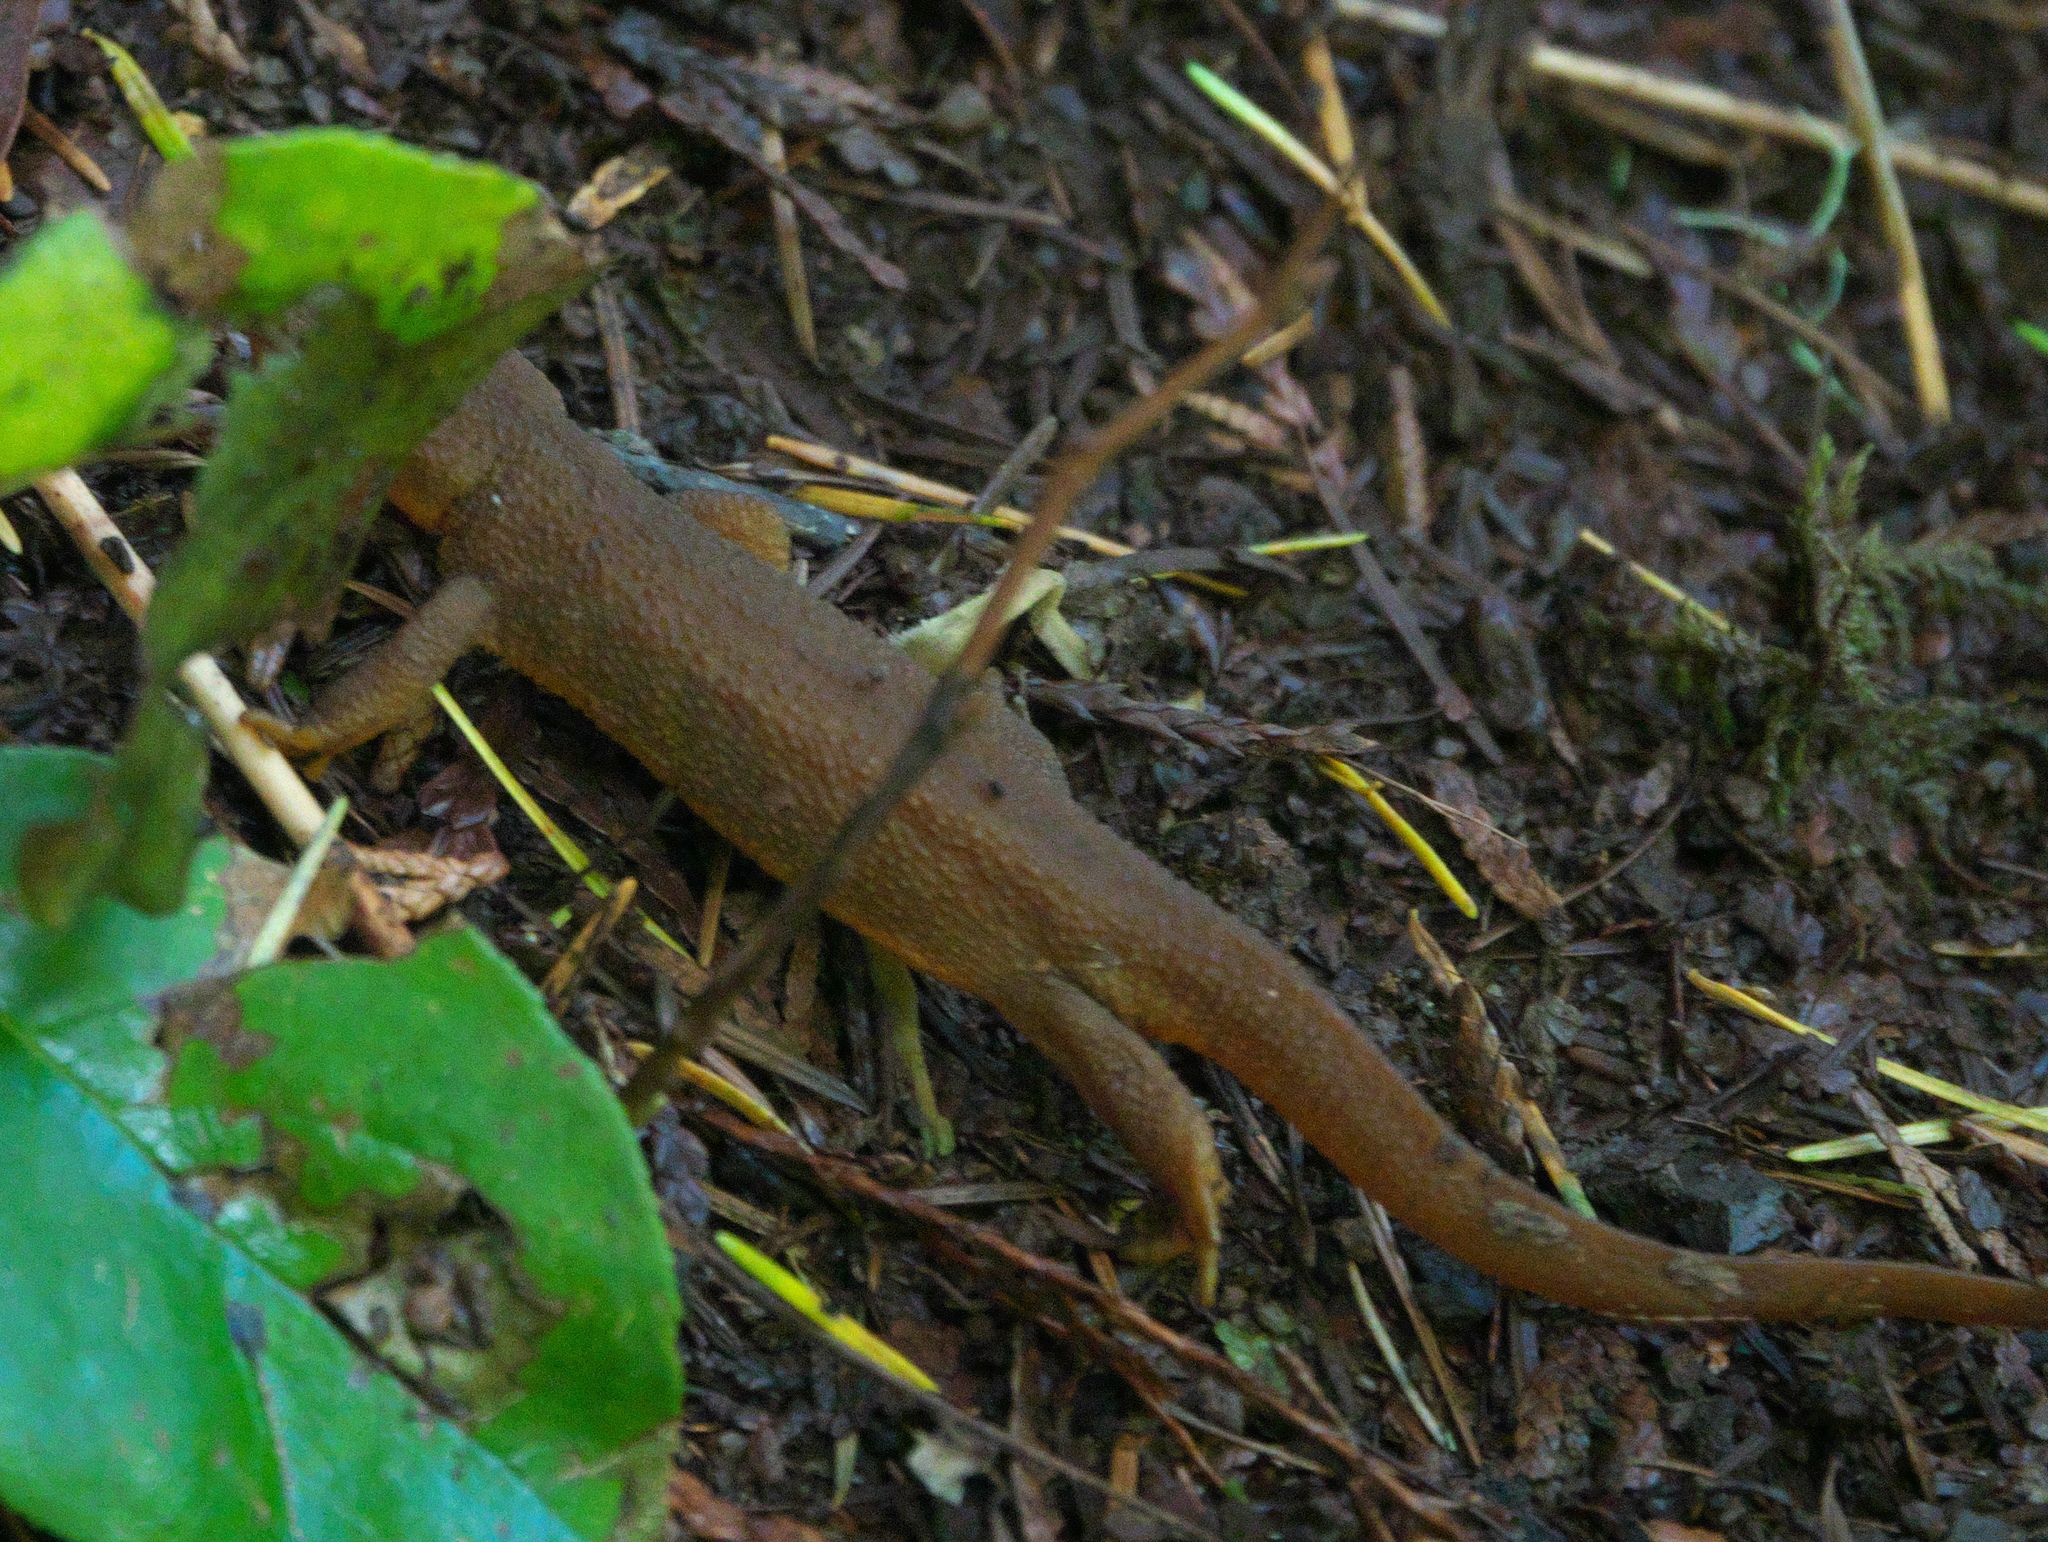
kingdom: Animalia
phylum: Chordata
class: Amphibia
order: Caudata
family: Salamandridae
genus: Taricha
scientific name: Taricha granulosa
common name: Roughskin newt
